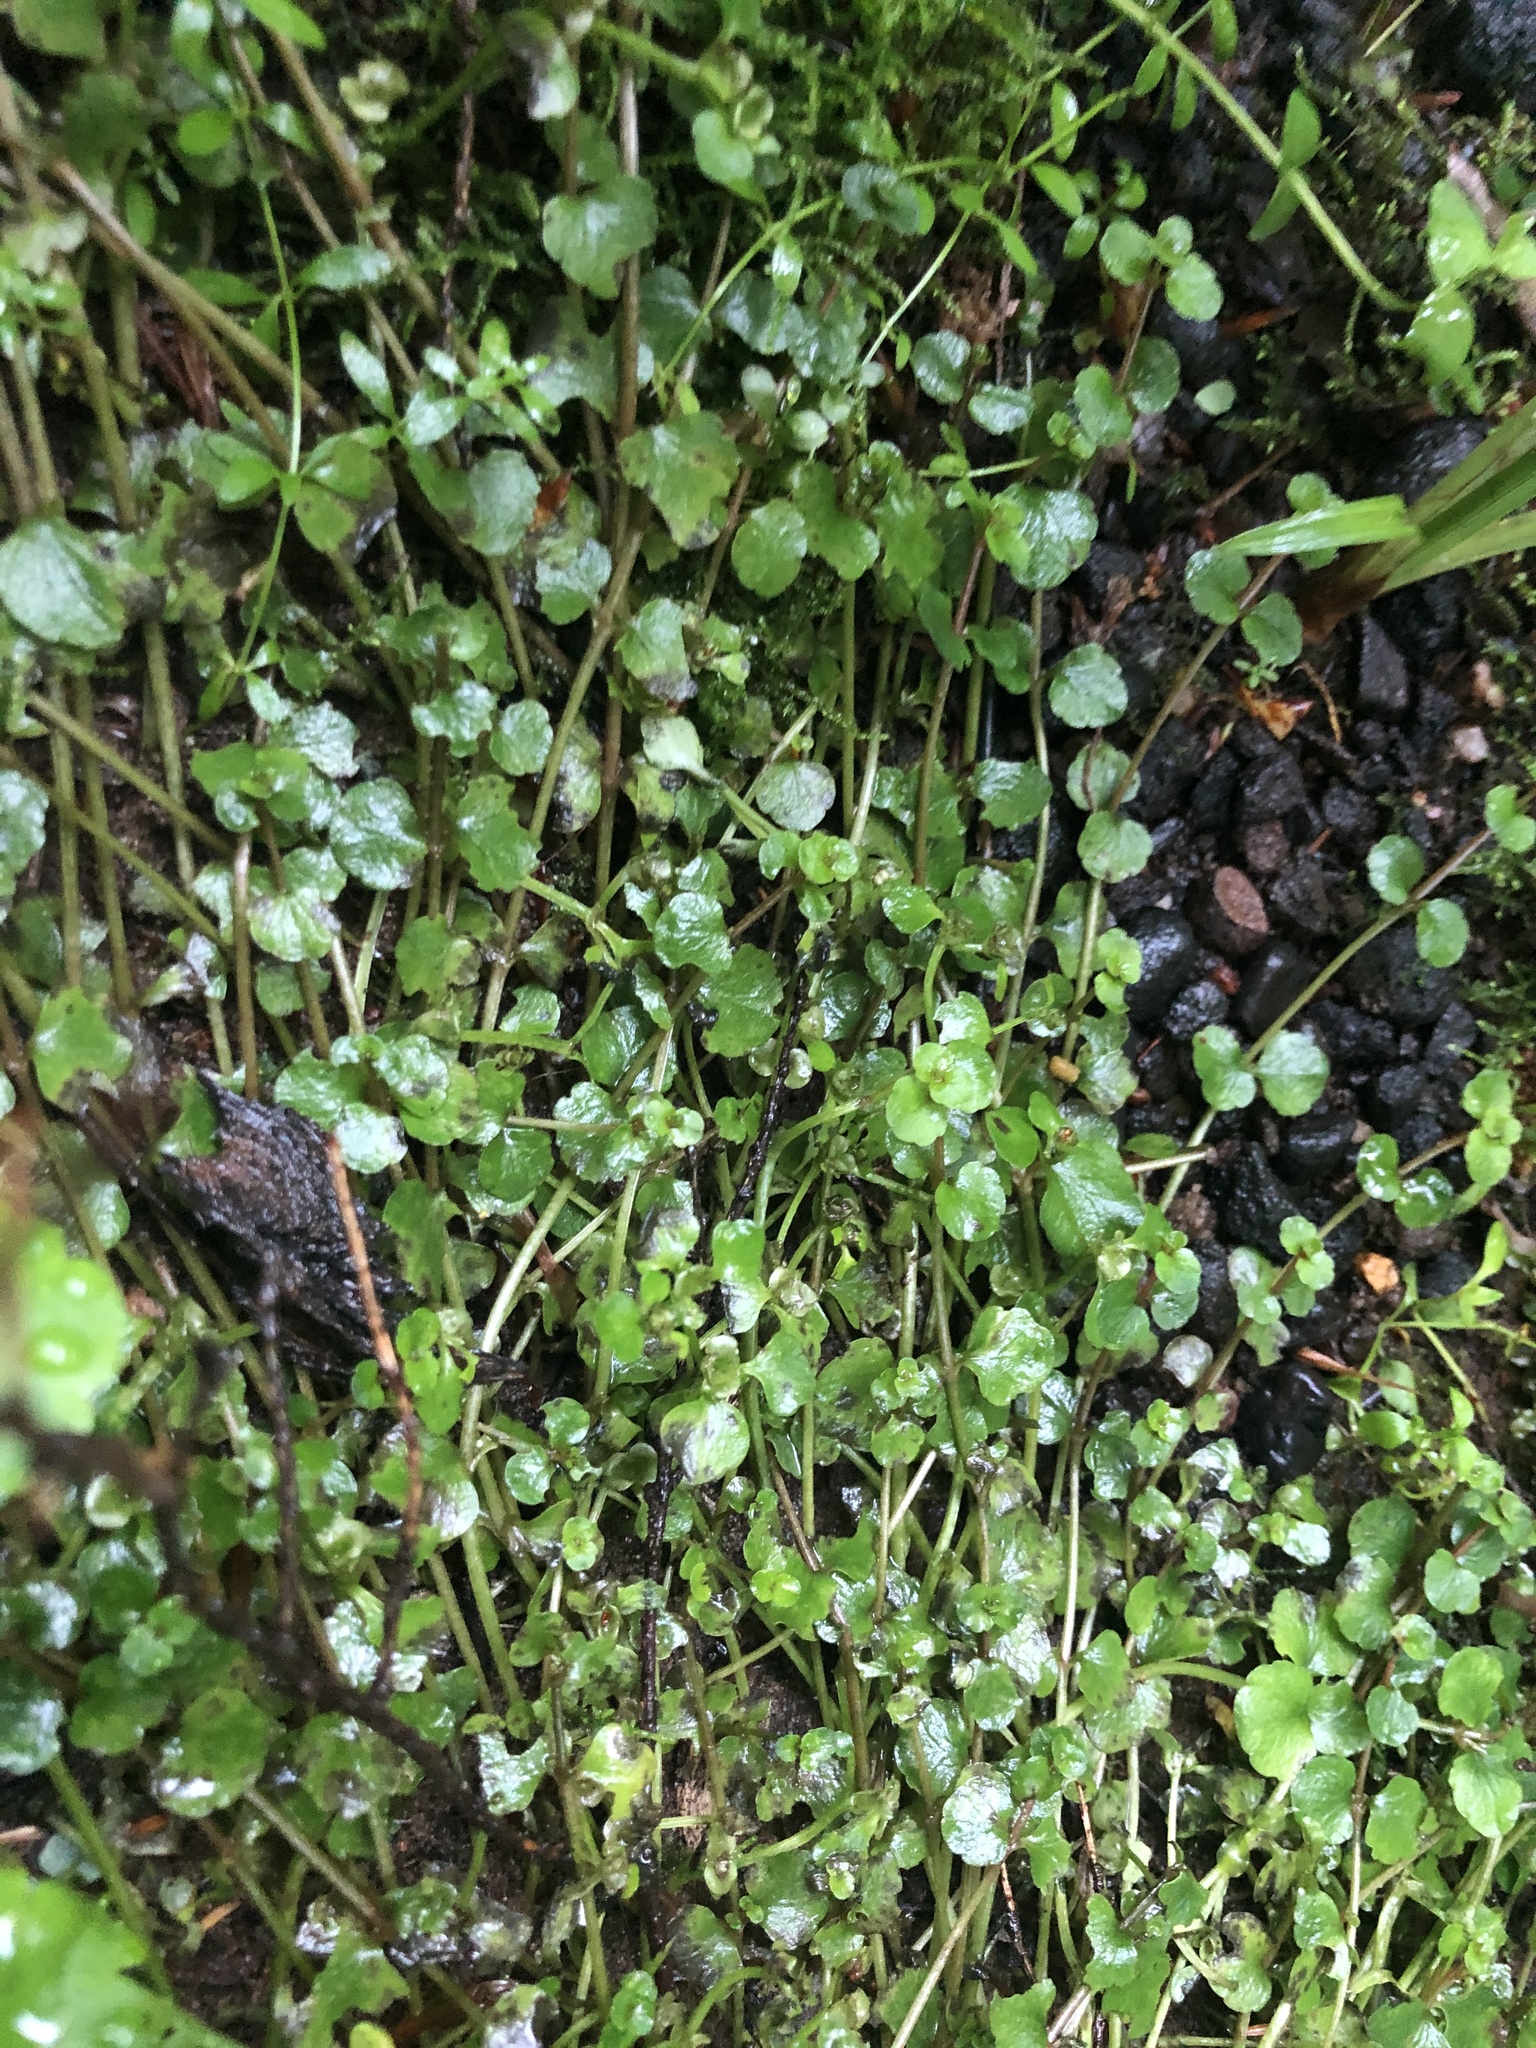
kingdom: Plantae
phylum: Tracheophyta
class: Magnoliopsida
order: Saxifragales
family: Saxifragaceae
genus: Chrysosplenium
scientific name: Chrysosplenium americanum
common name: American golden-saxifrage
